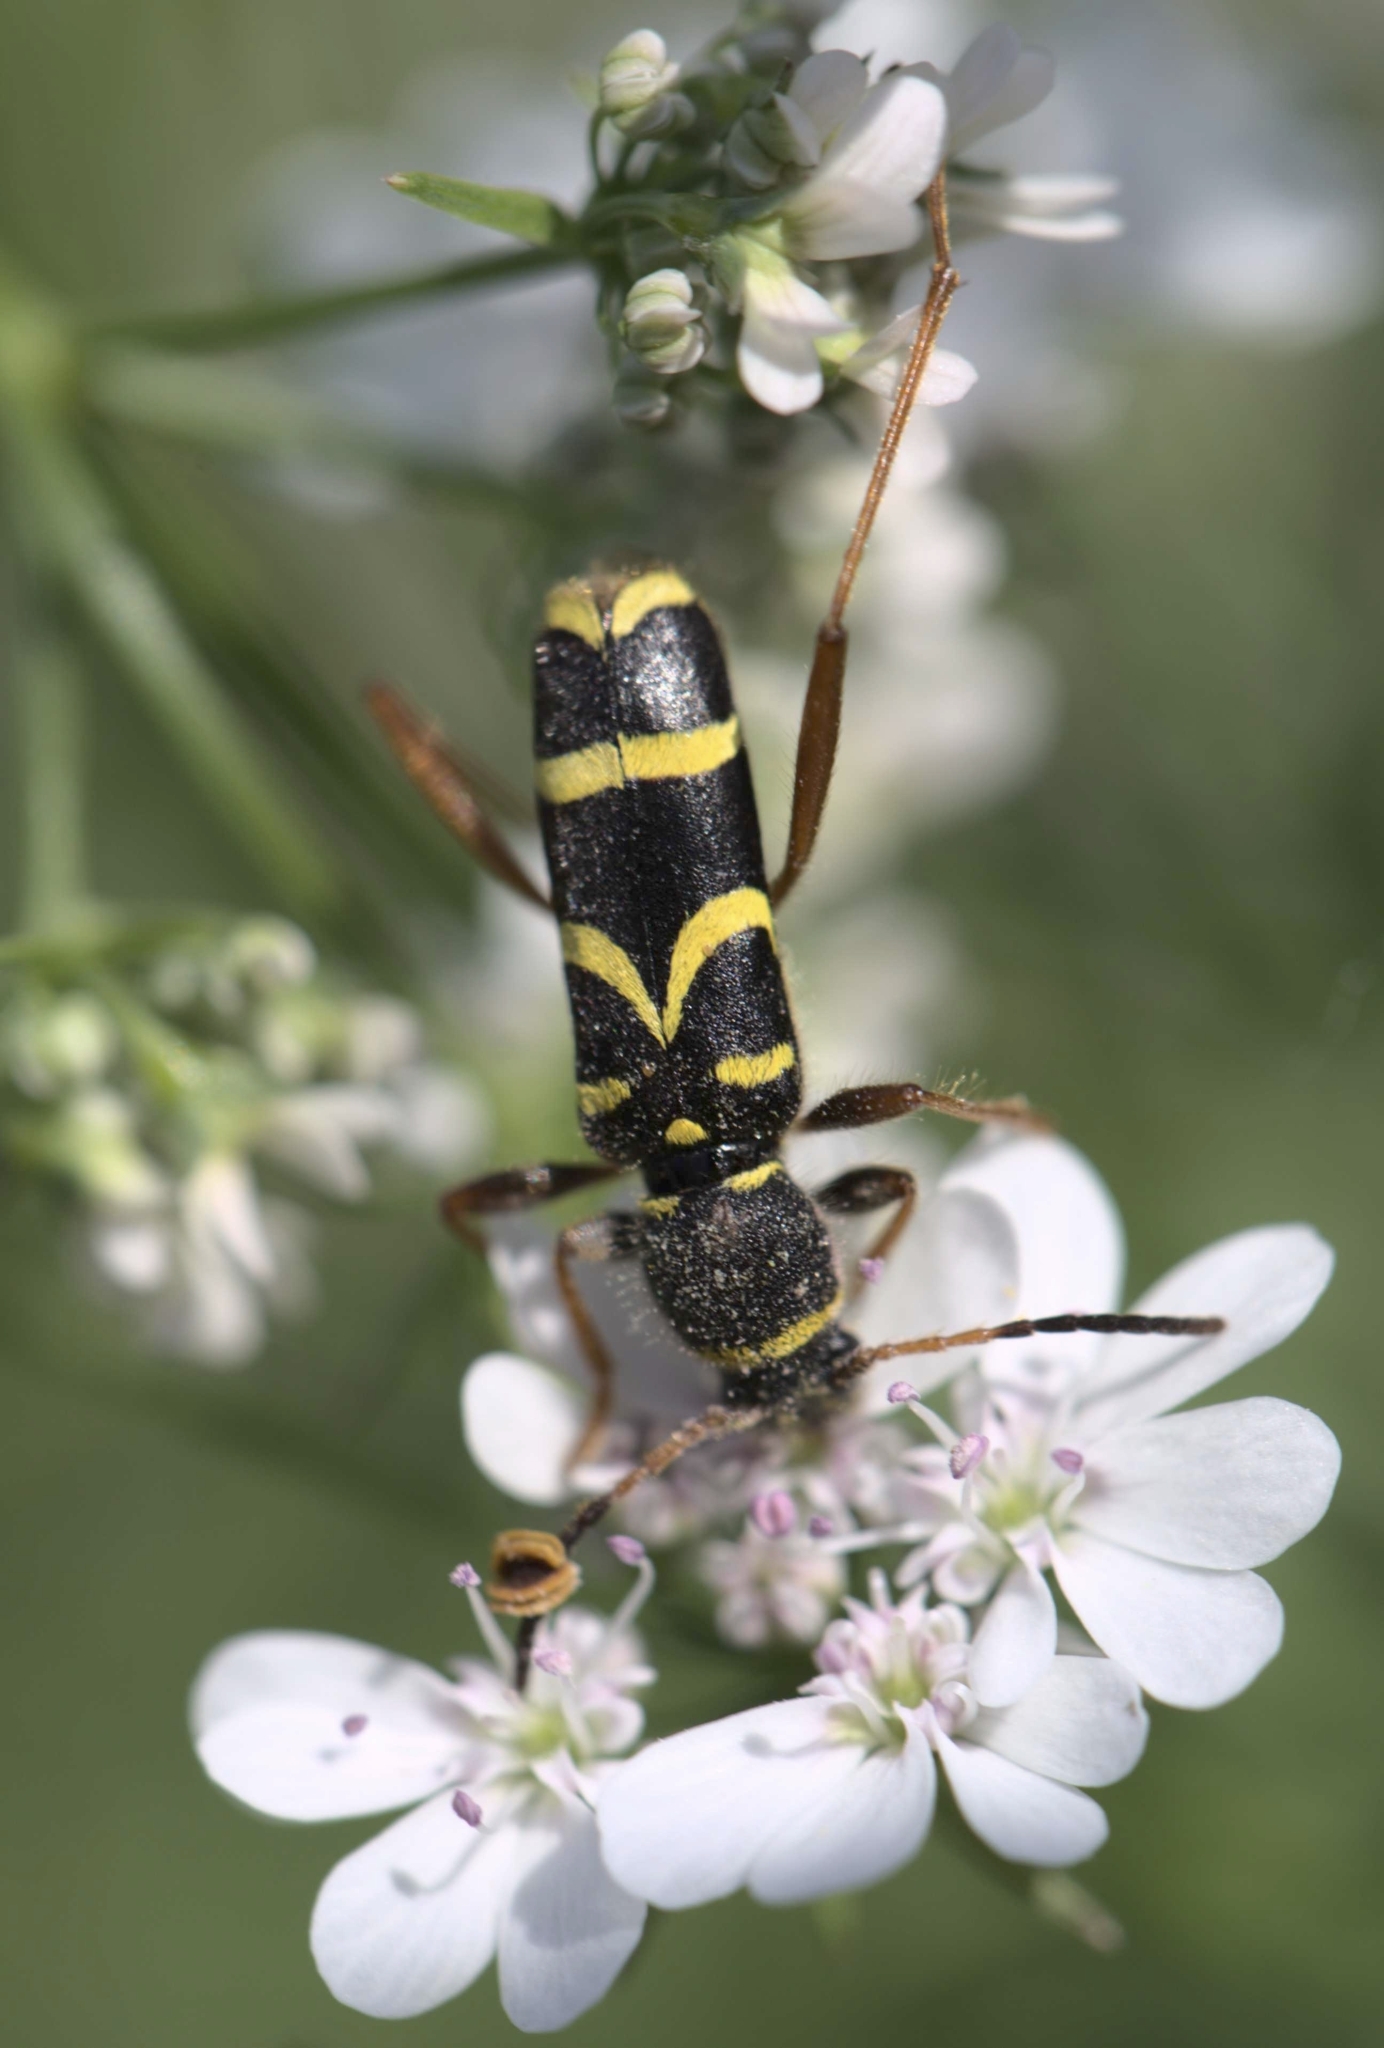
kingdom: Animalia
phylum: Arthropoda
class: Insecta
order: Coleoptera
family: Cerambycidae
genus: Clytus
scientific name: Clytus arietis
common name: Wasp beetle
